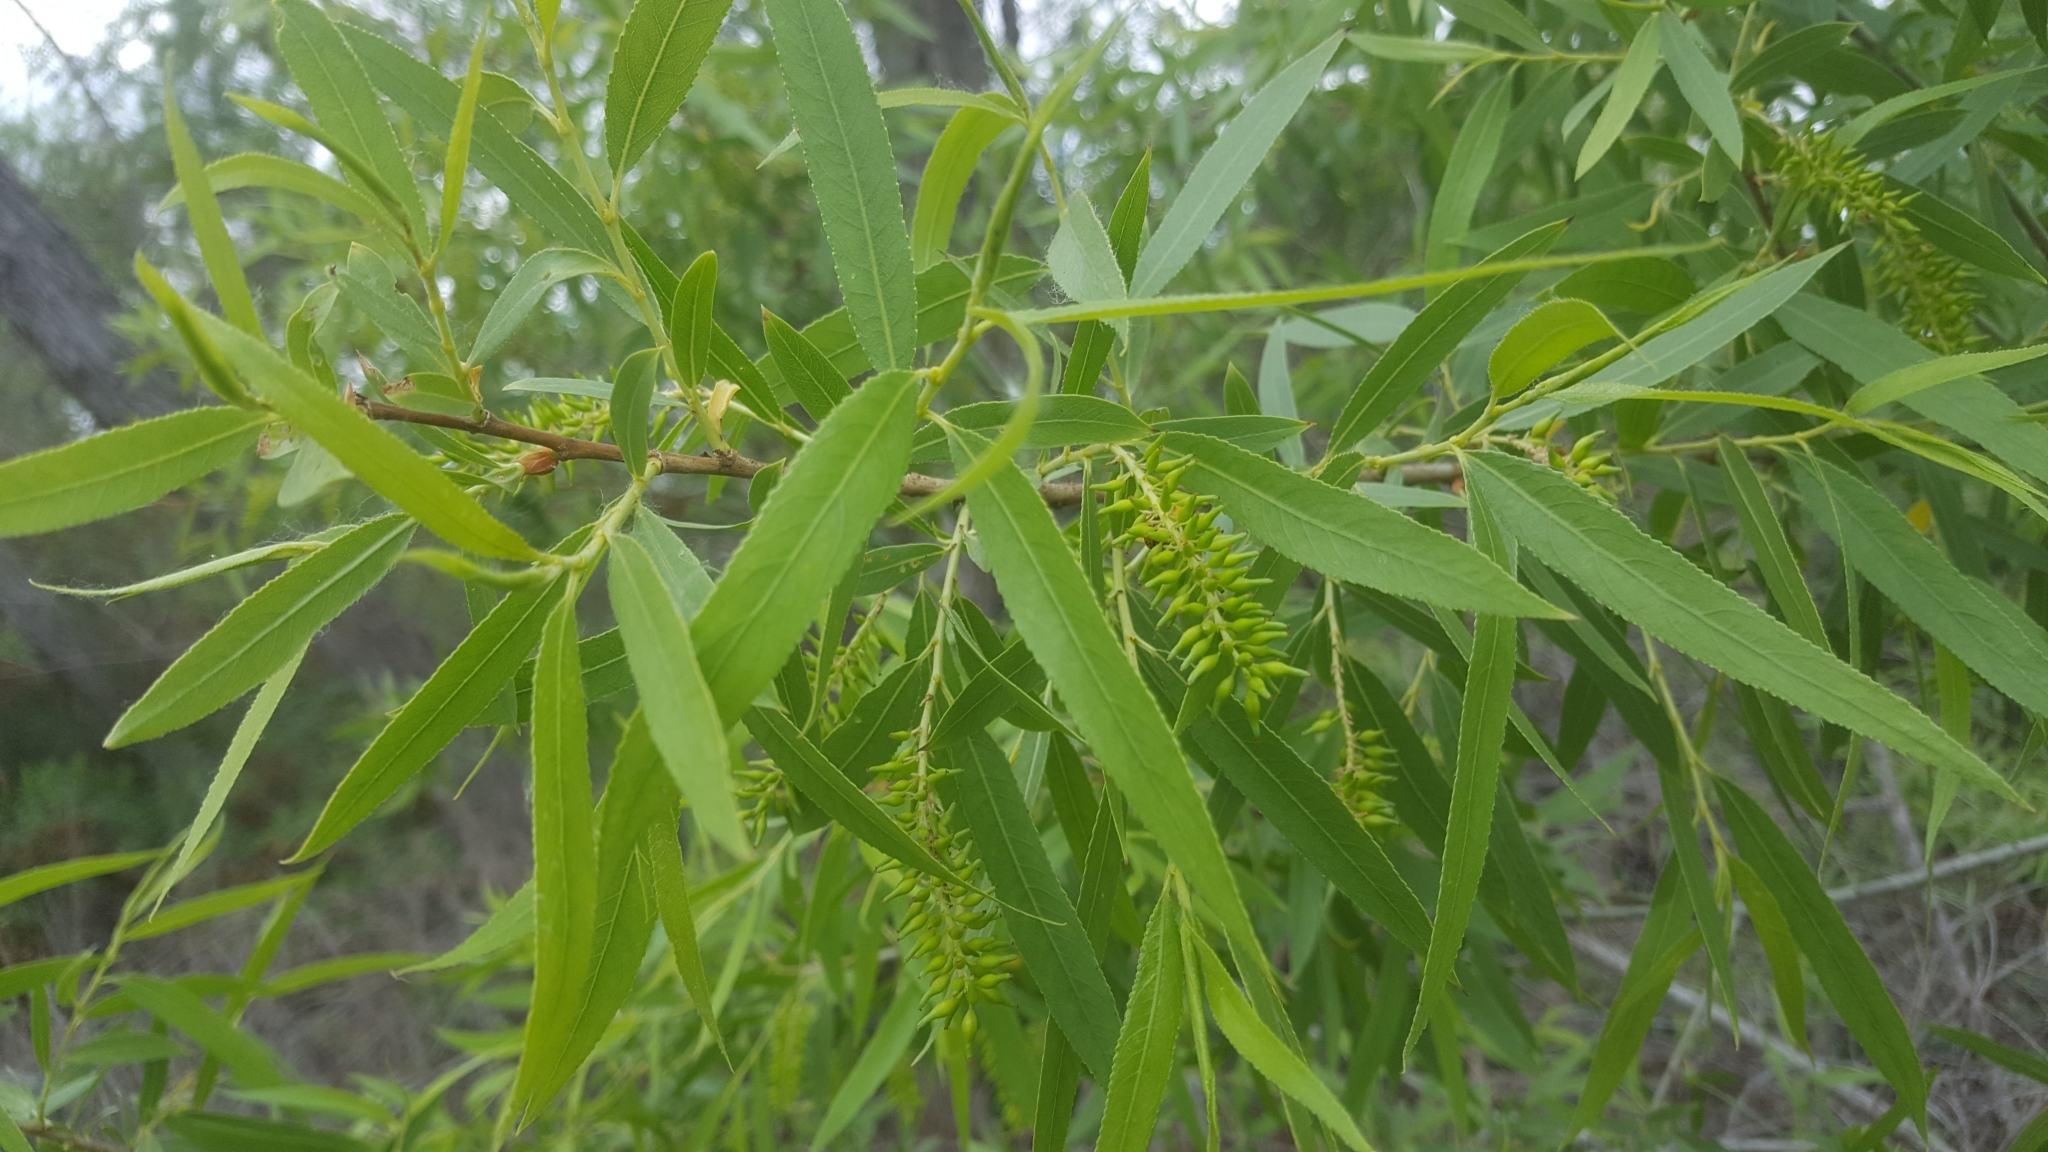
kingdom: Plantae
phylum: Tracheophyta
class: Magnoliopsida
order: Malpighiales
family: Salicaceae
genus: Salix
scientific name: Salix gooddingii
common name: Goodding's willow
